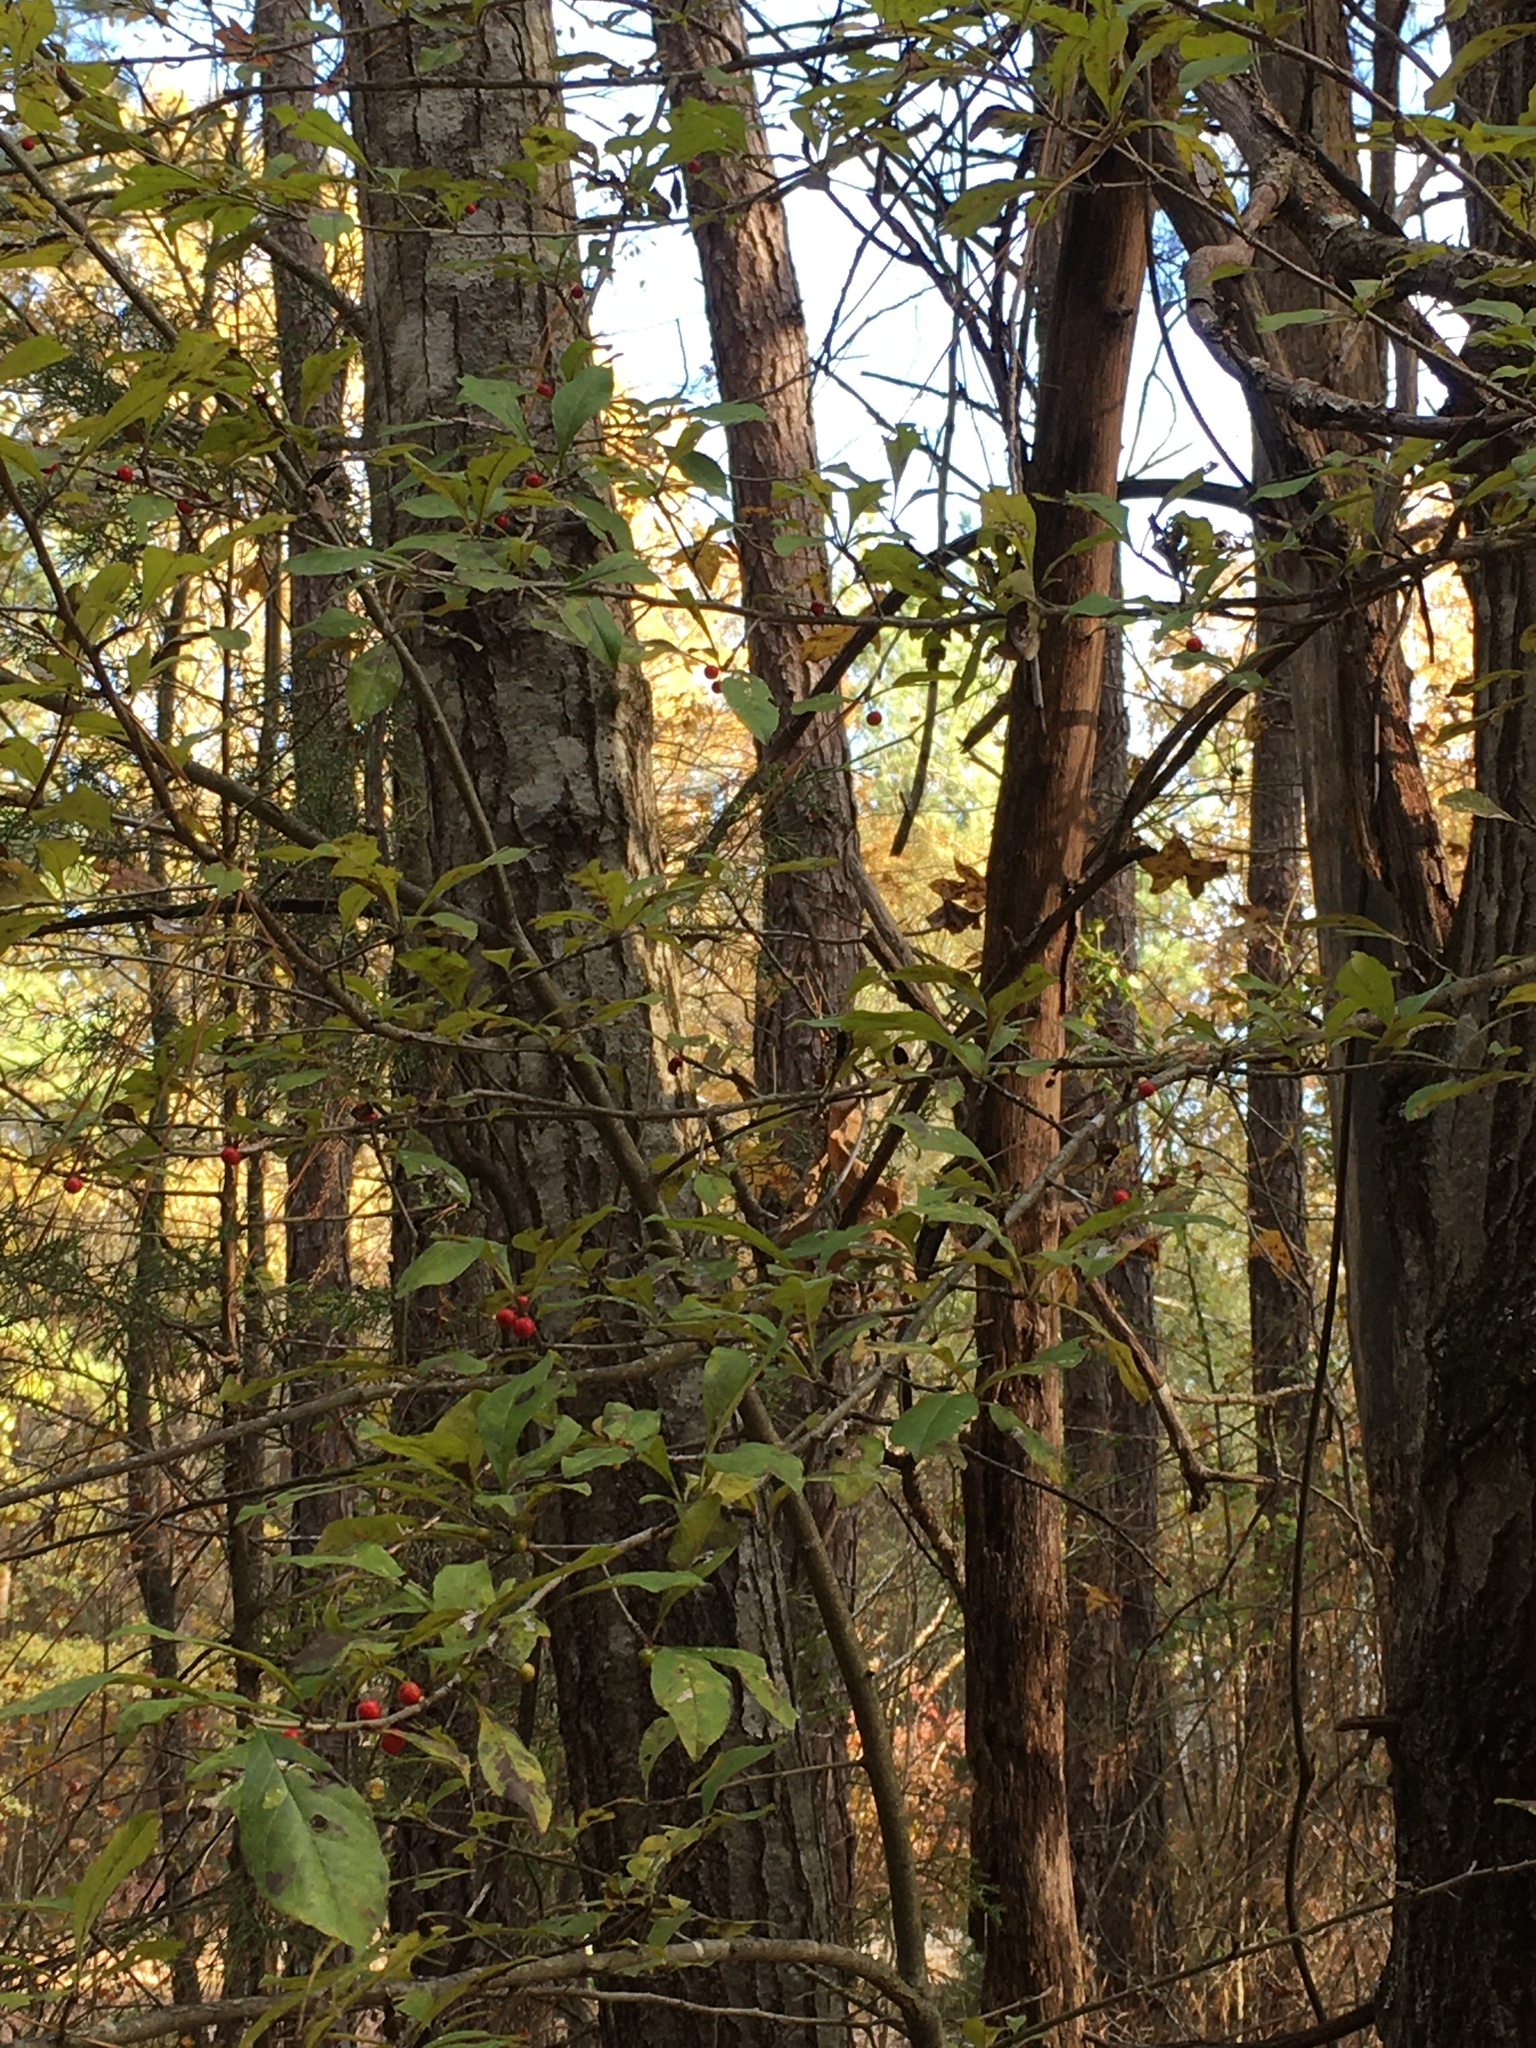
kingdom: Plantae
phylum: Tracheophyta
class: Magnoliopsida
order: Aquifoliales
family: Aquifoliaceae
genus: Ilex
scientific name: Ilex decidua
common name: Possum-haw
